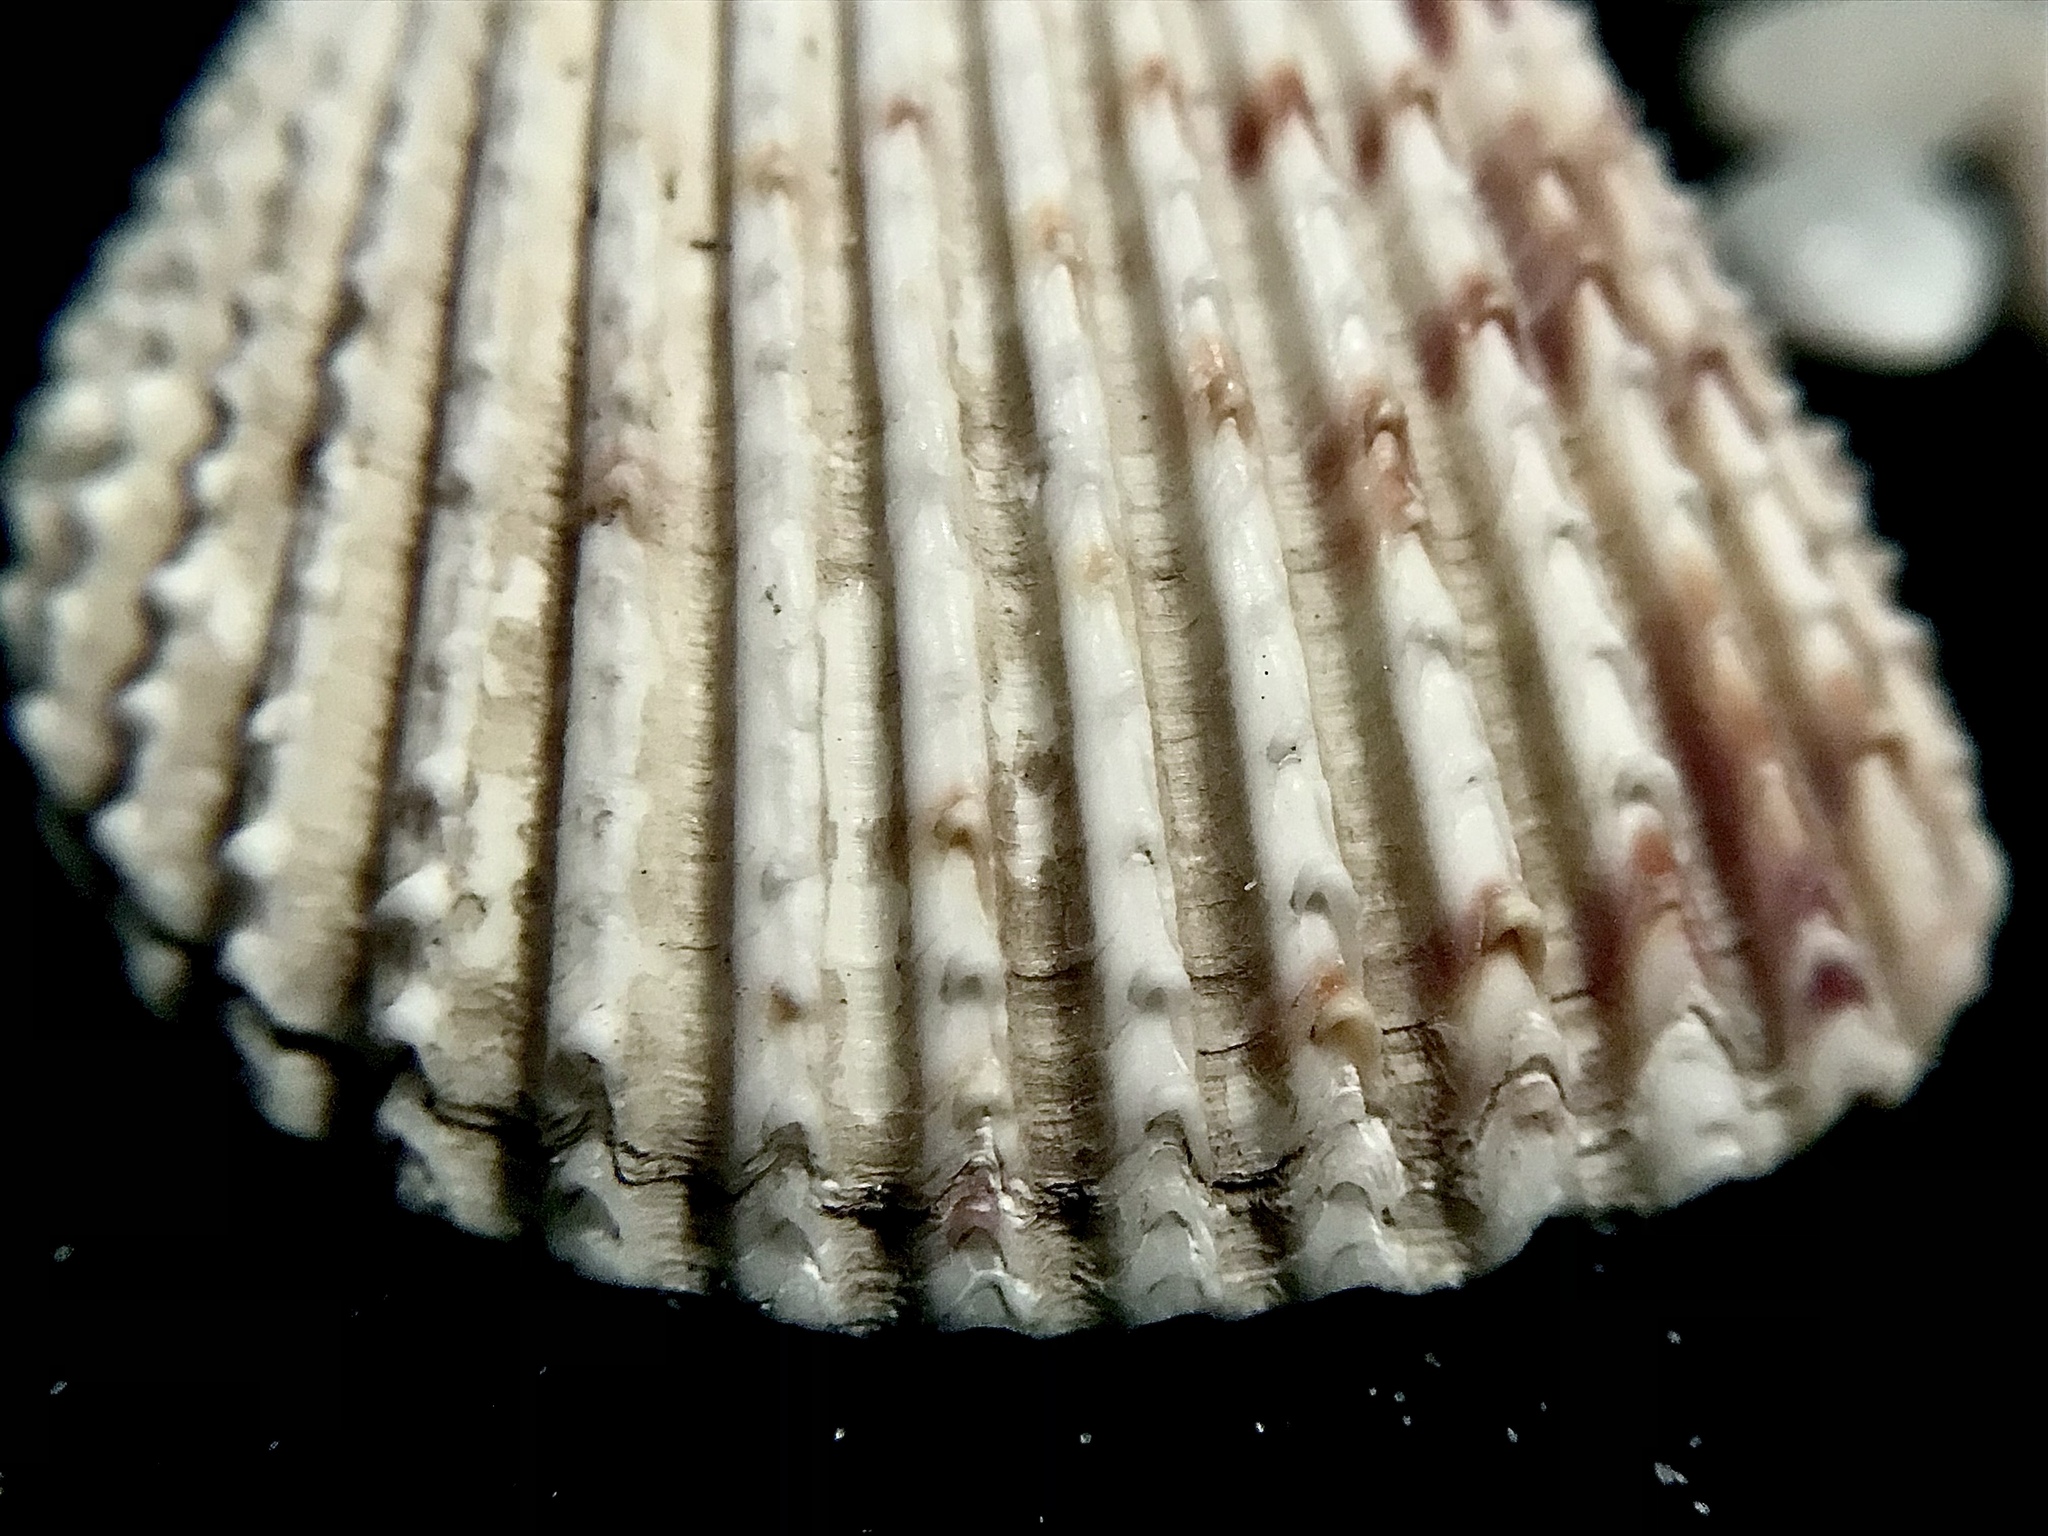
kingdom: Animalia
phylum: Mollusca
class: Bivalvia
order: Cardiida
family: Cardiidae
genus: Trachycardium
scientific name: Trachycardium egmontianum
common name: Florida pricklycockle
